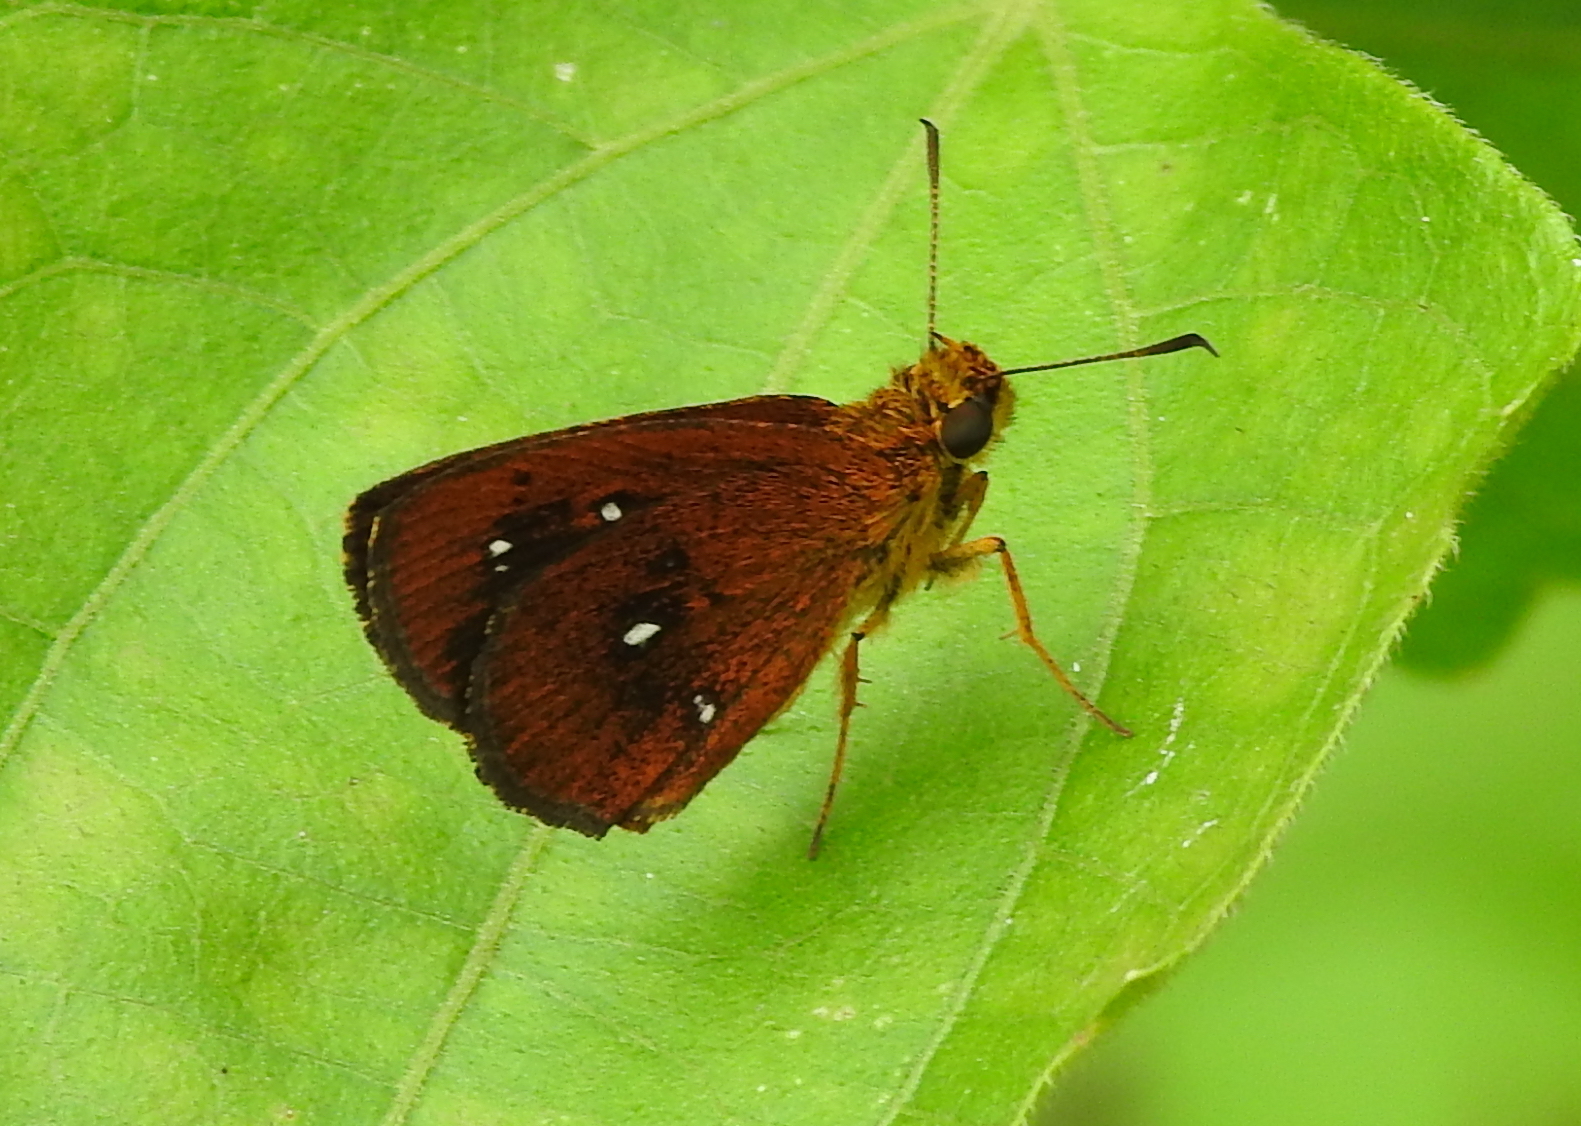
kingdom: Animalia
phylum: Arthropoda
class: Insecta
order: Lepidoptera
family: Hesperiidae
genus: Iambrix
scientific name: Iambrix salsala
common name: Chestnut bob
